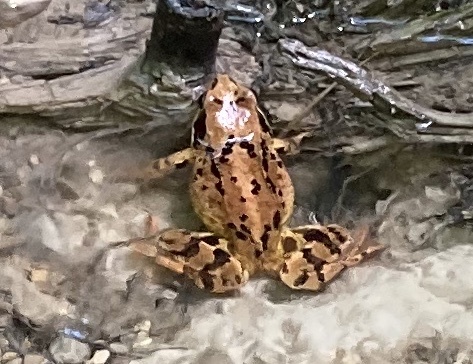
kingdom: Animalia
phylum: Chordata
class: Amphibia
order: Anura
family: Ranidae
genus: Rana
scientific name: Rana temporaria
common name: Common frog
